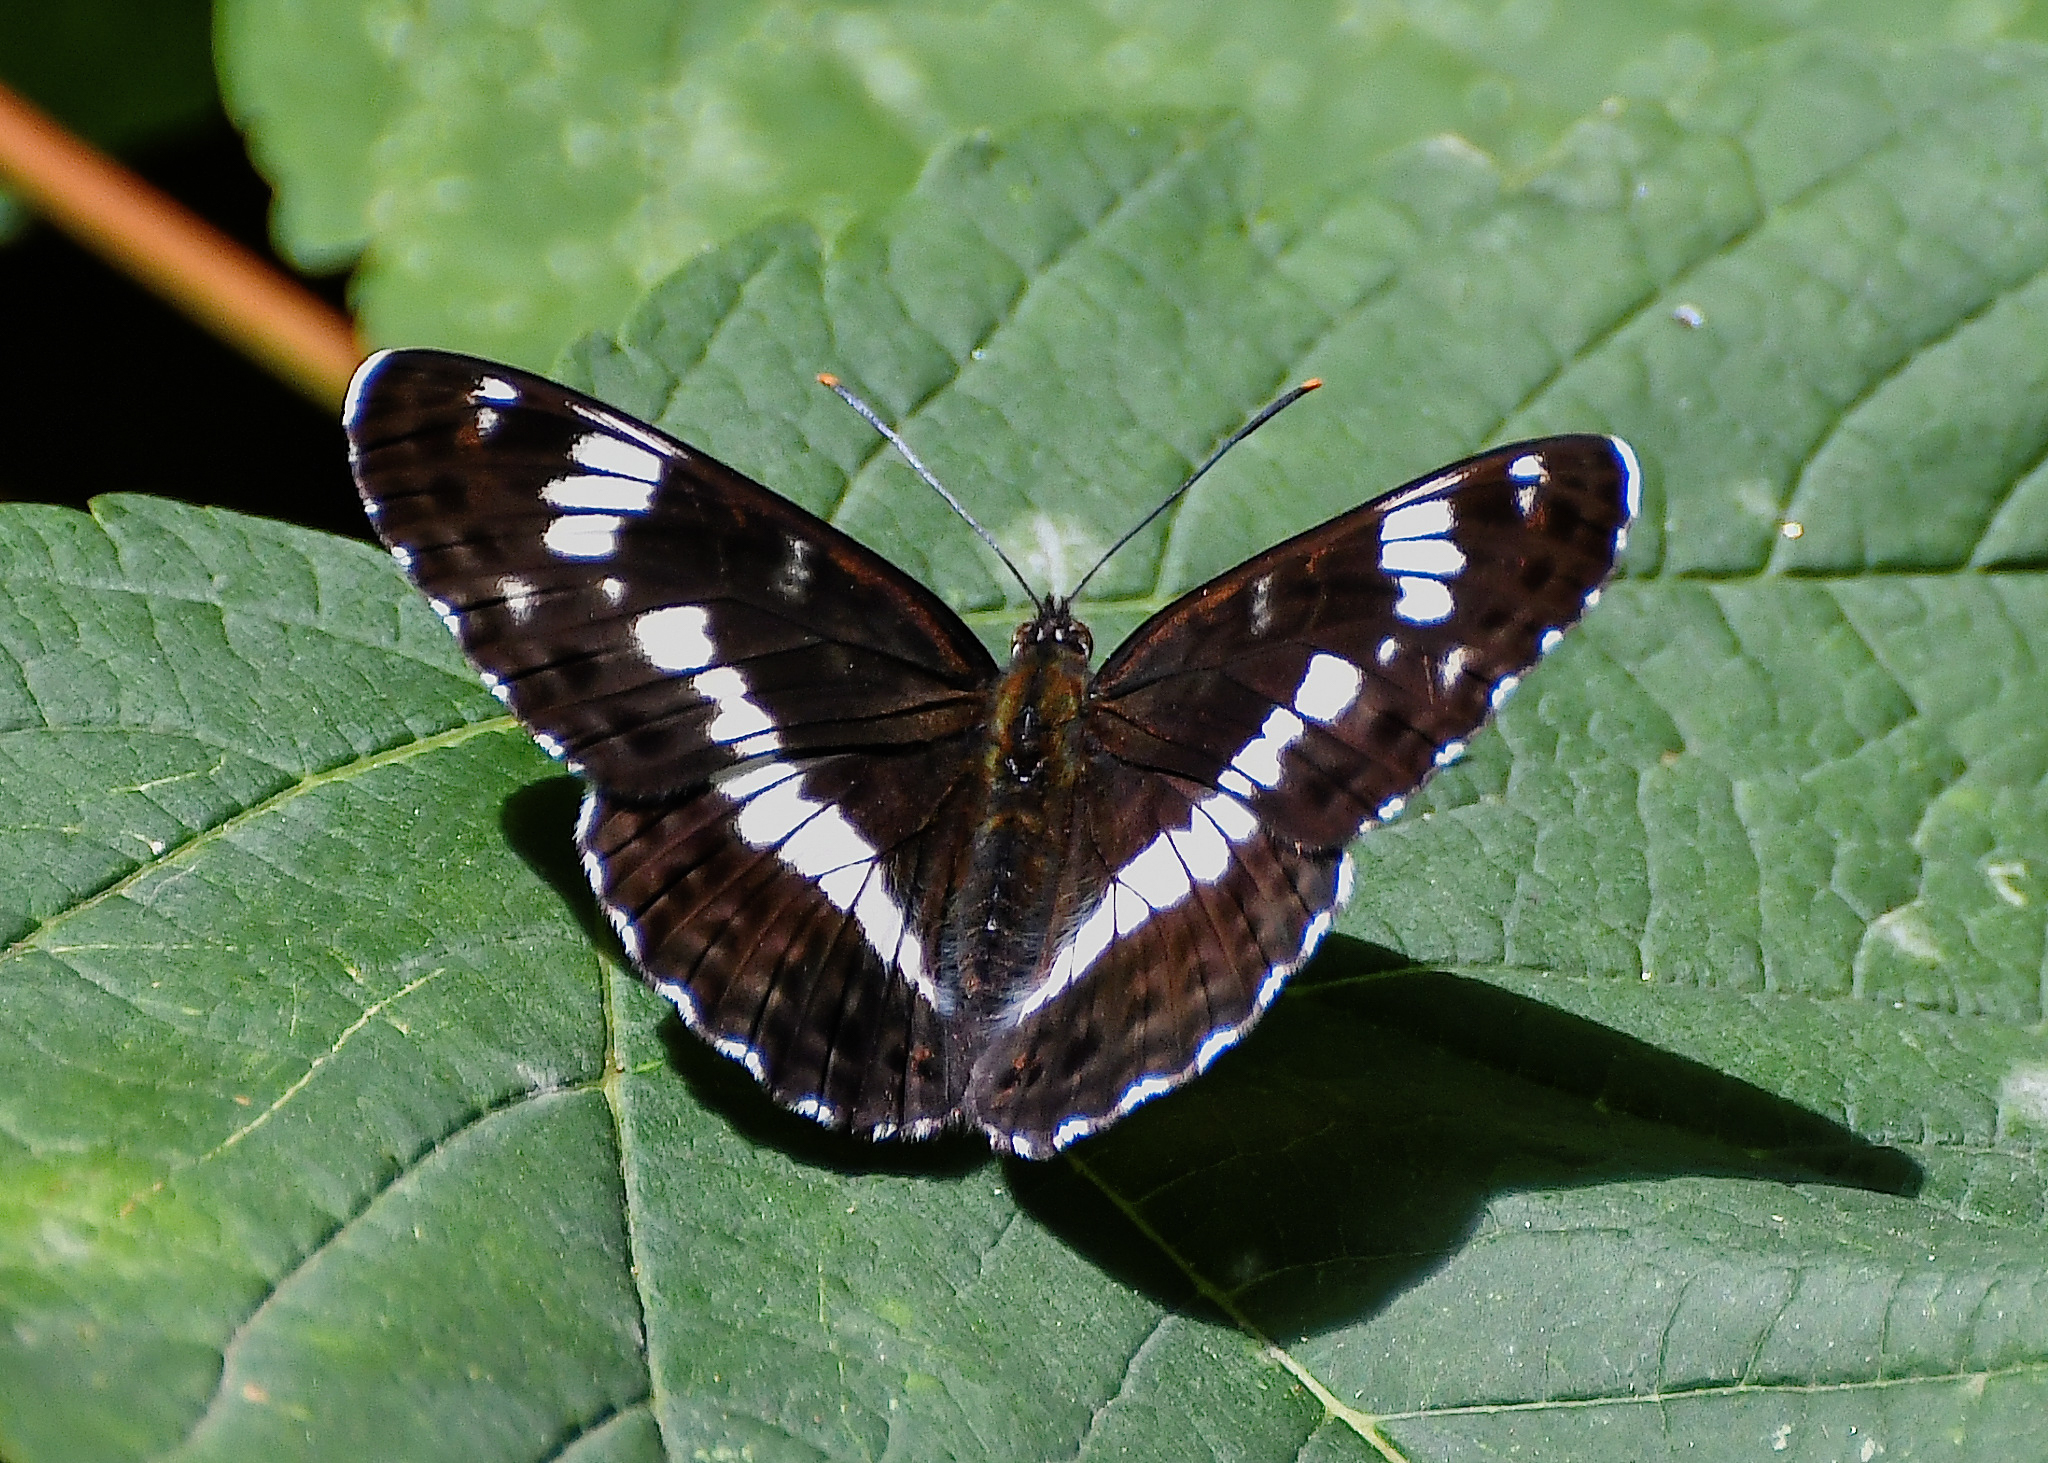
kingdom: Animalia
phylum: Arthropoda
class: Insecta
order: Lepidoptera
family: Nymphalidae
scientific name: Nymphalidae
